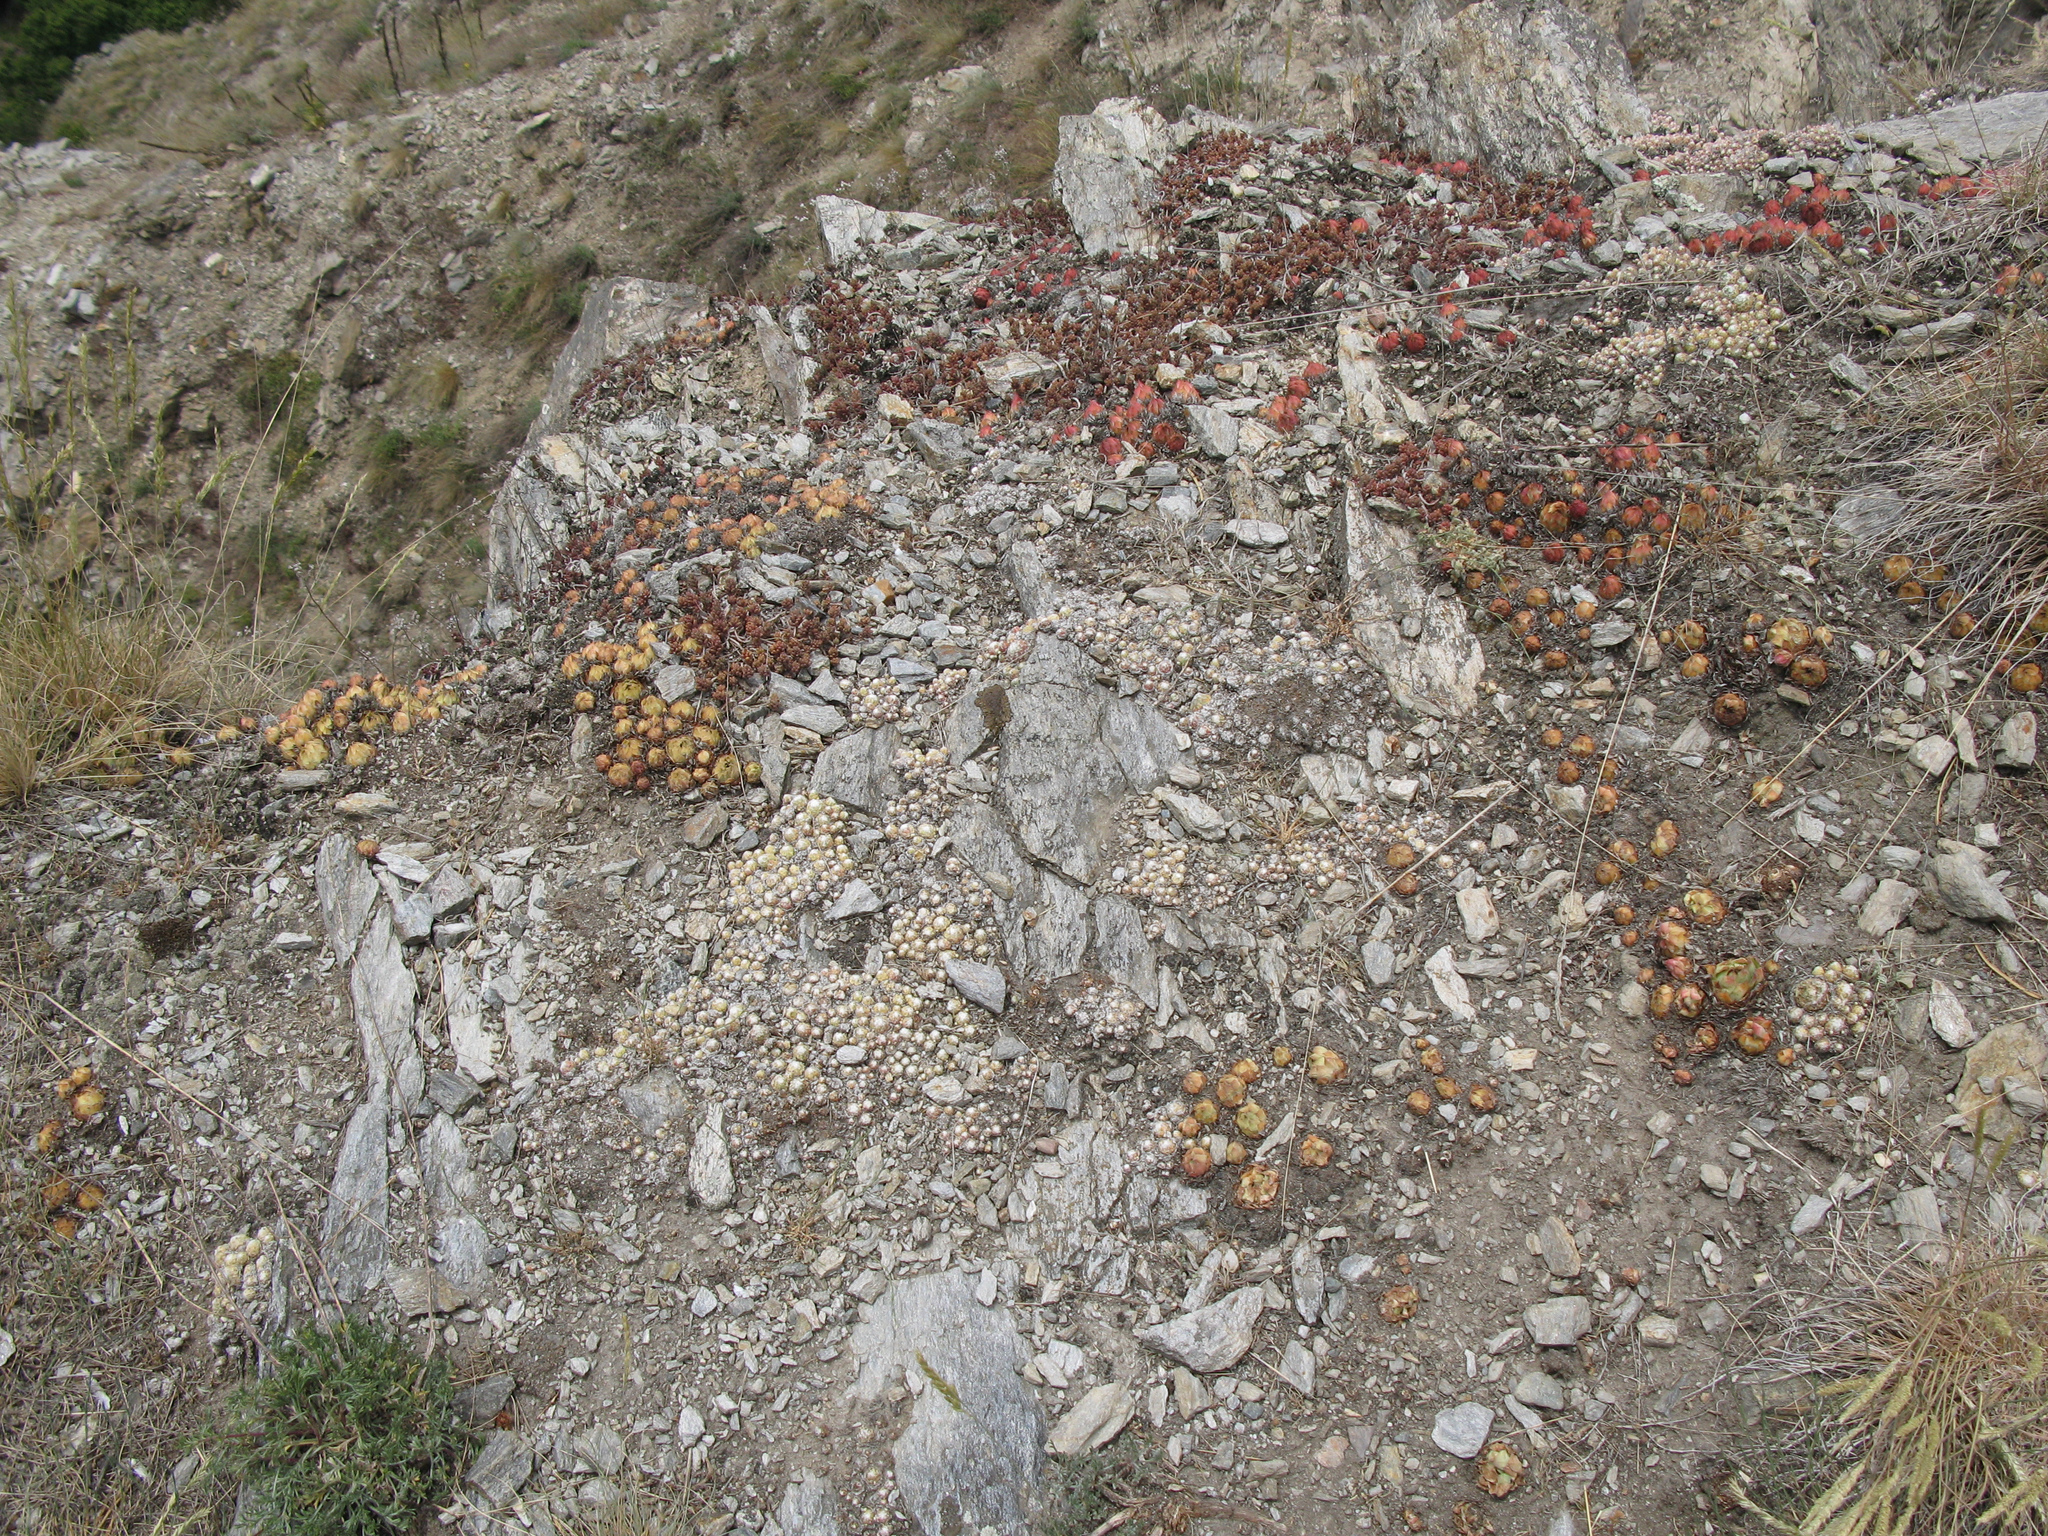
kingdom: Plantae
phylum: Tracheophyta
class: Magnoliopsida
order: Saxifragales
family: Crassulaceae
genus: Sempervivum
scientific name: Sempervivum arachnoideum
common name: Cobweb house-leek
